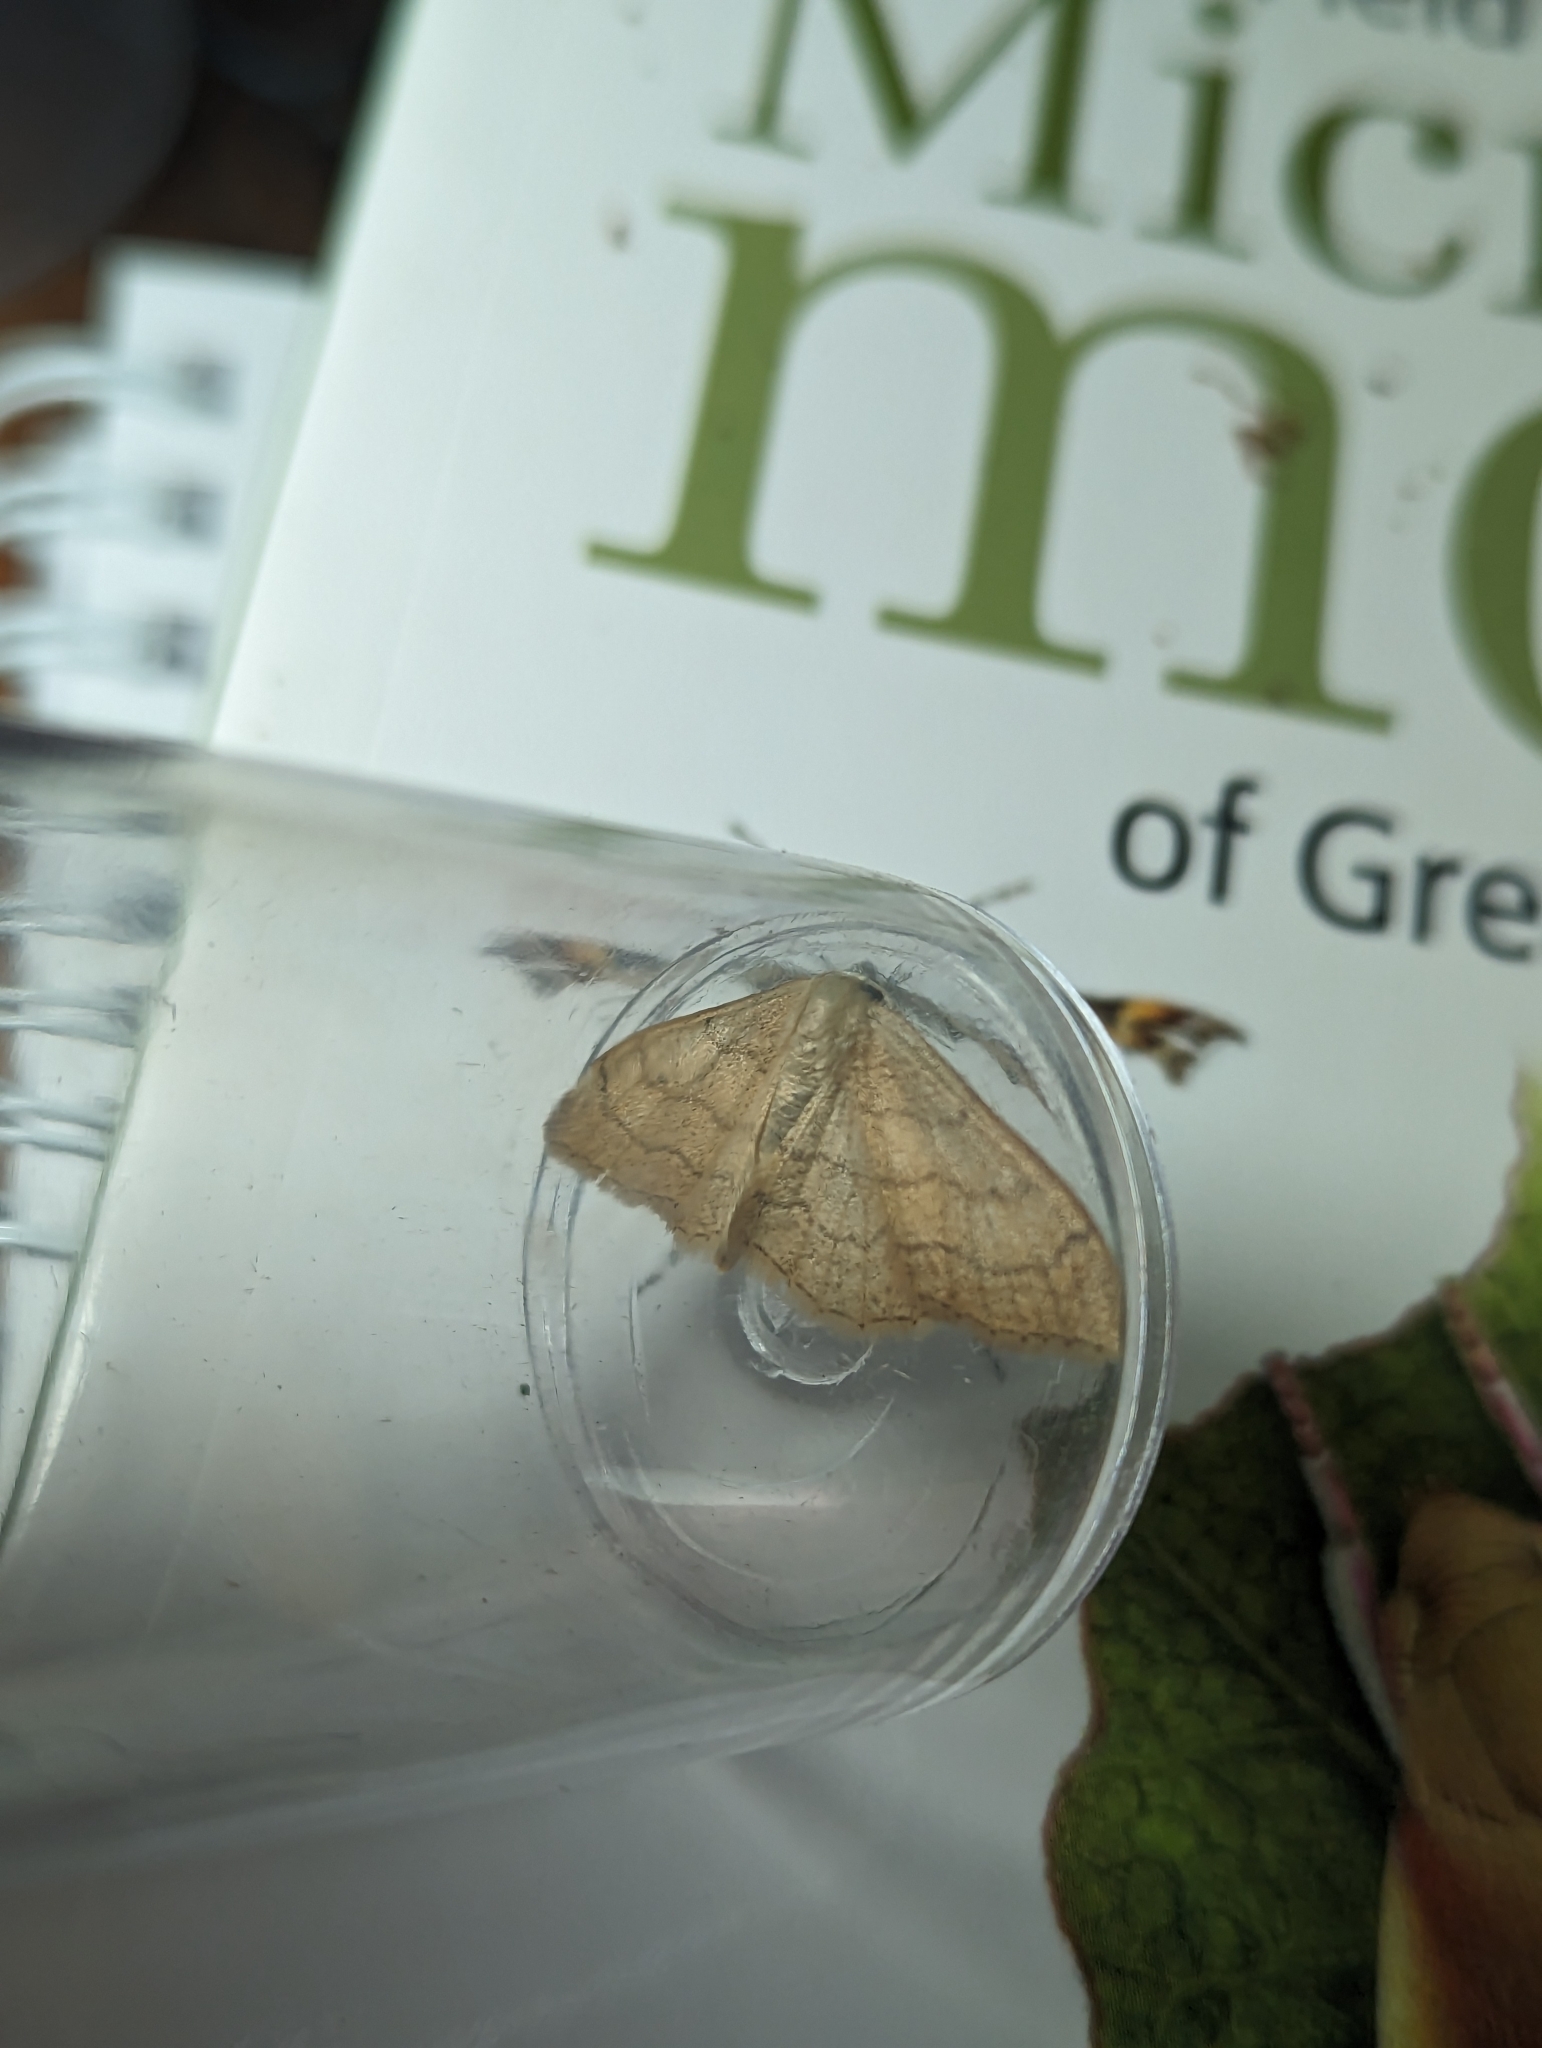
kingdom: Animalia
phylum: Arthropoda
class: Insecta
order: Lepidoptera
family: Geometridae
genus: Idaea
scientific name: Idaea aversata
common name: Riband wave
